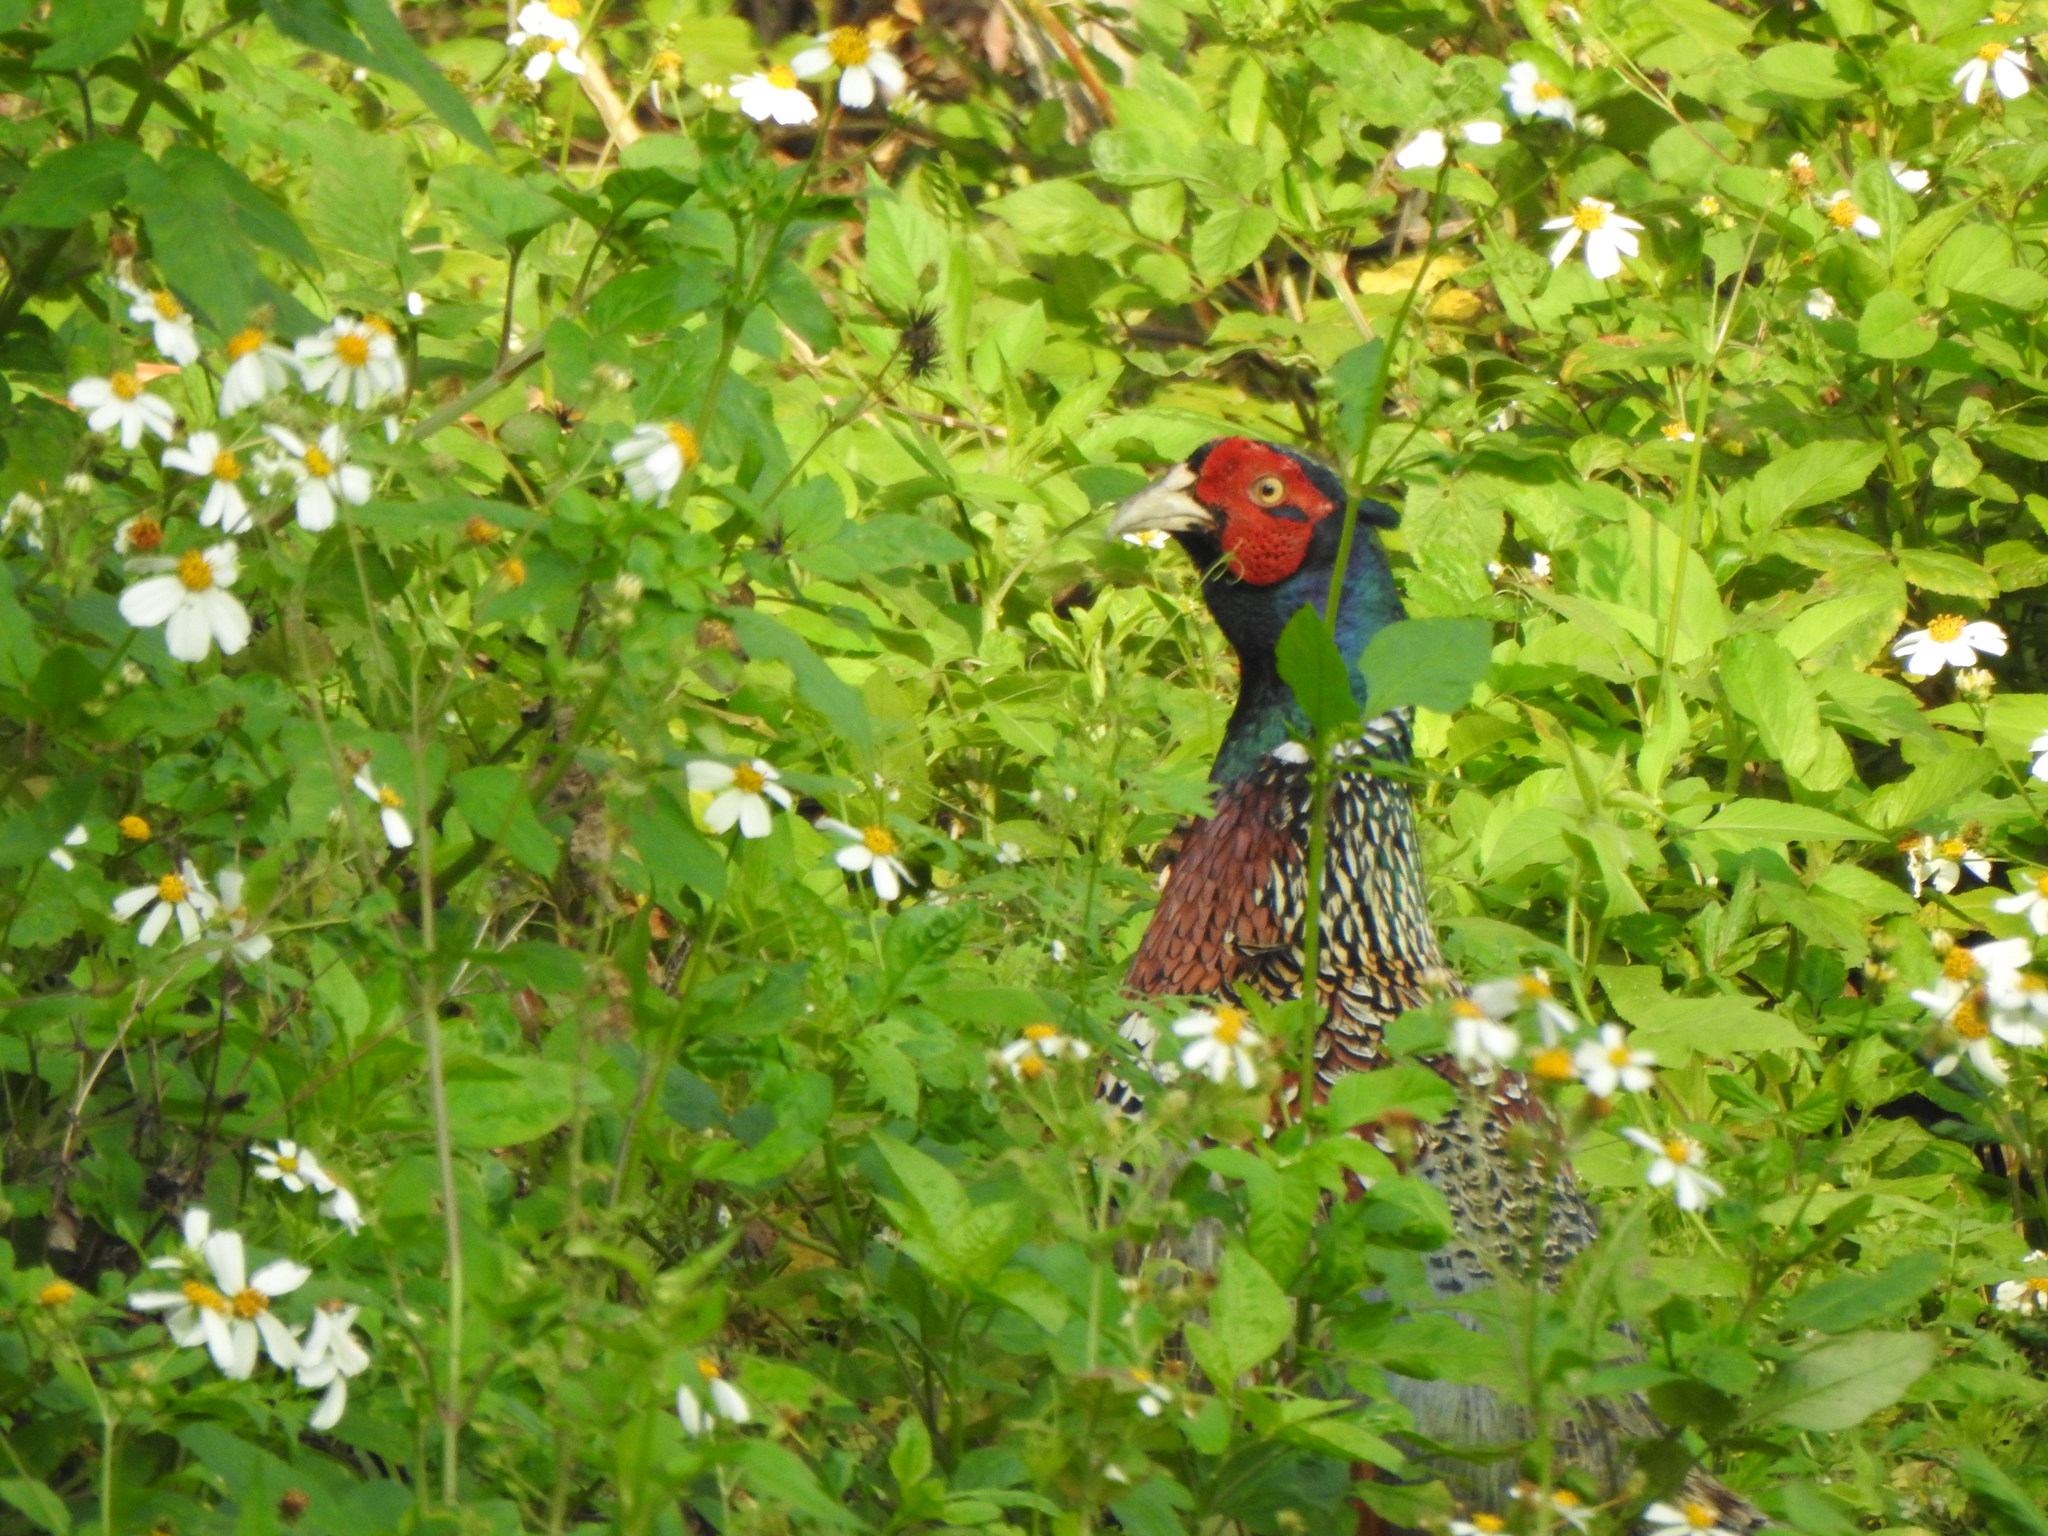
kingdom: Animalia
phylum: Chordata
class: Aves
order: Galliformes
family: Phasianidae
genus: Phasianus
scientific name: Phasianus colchicus
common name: Common pheasant
